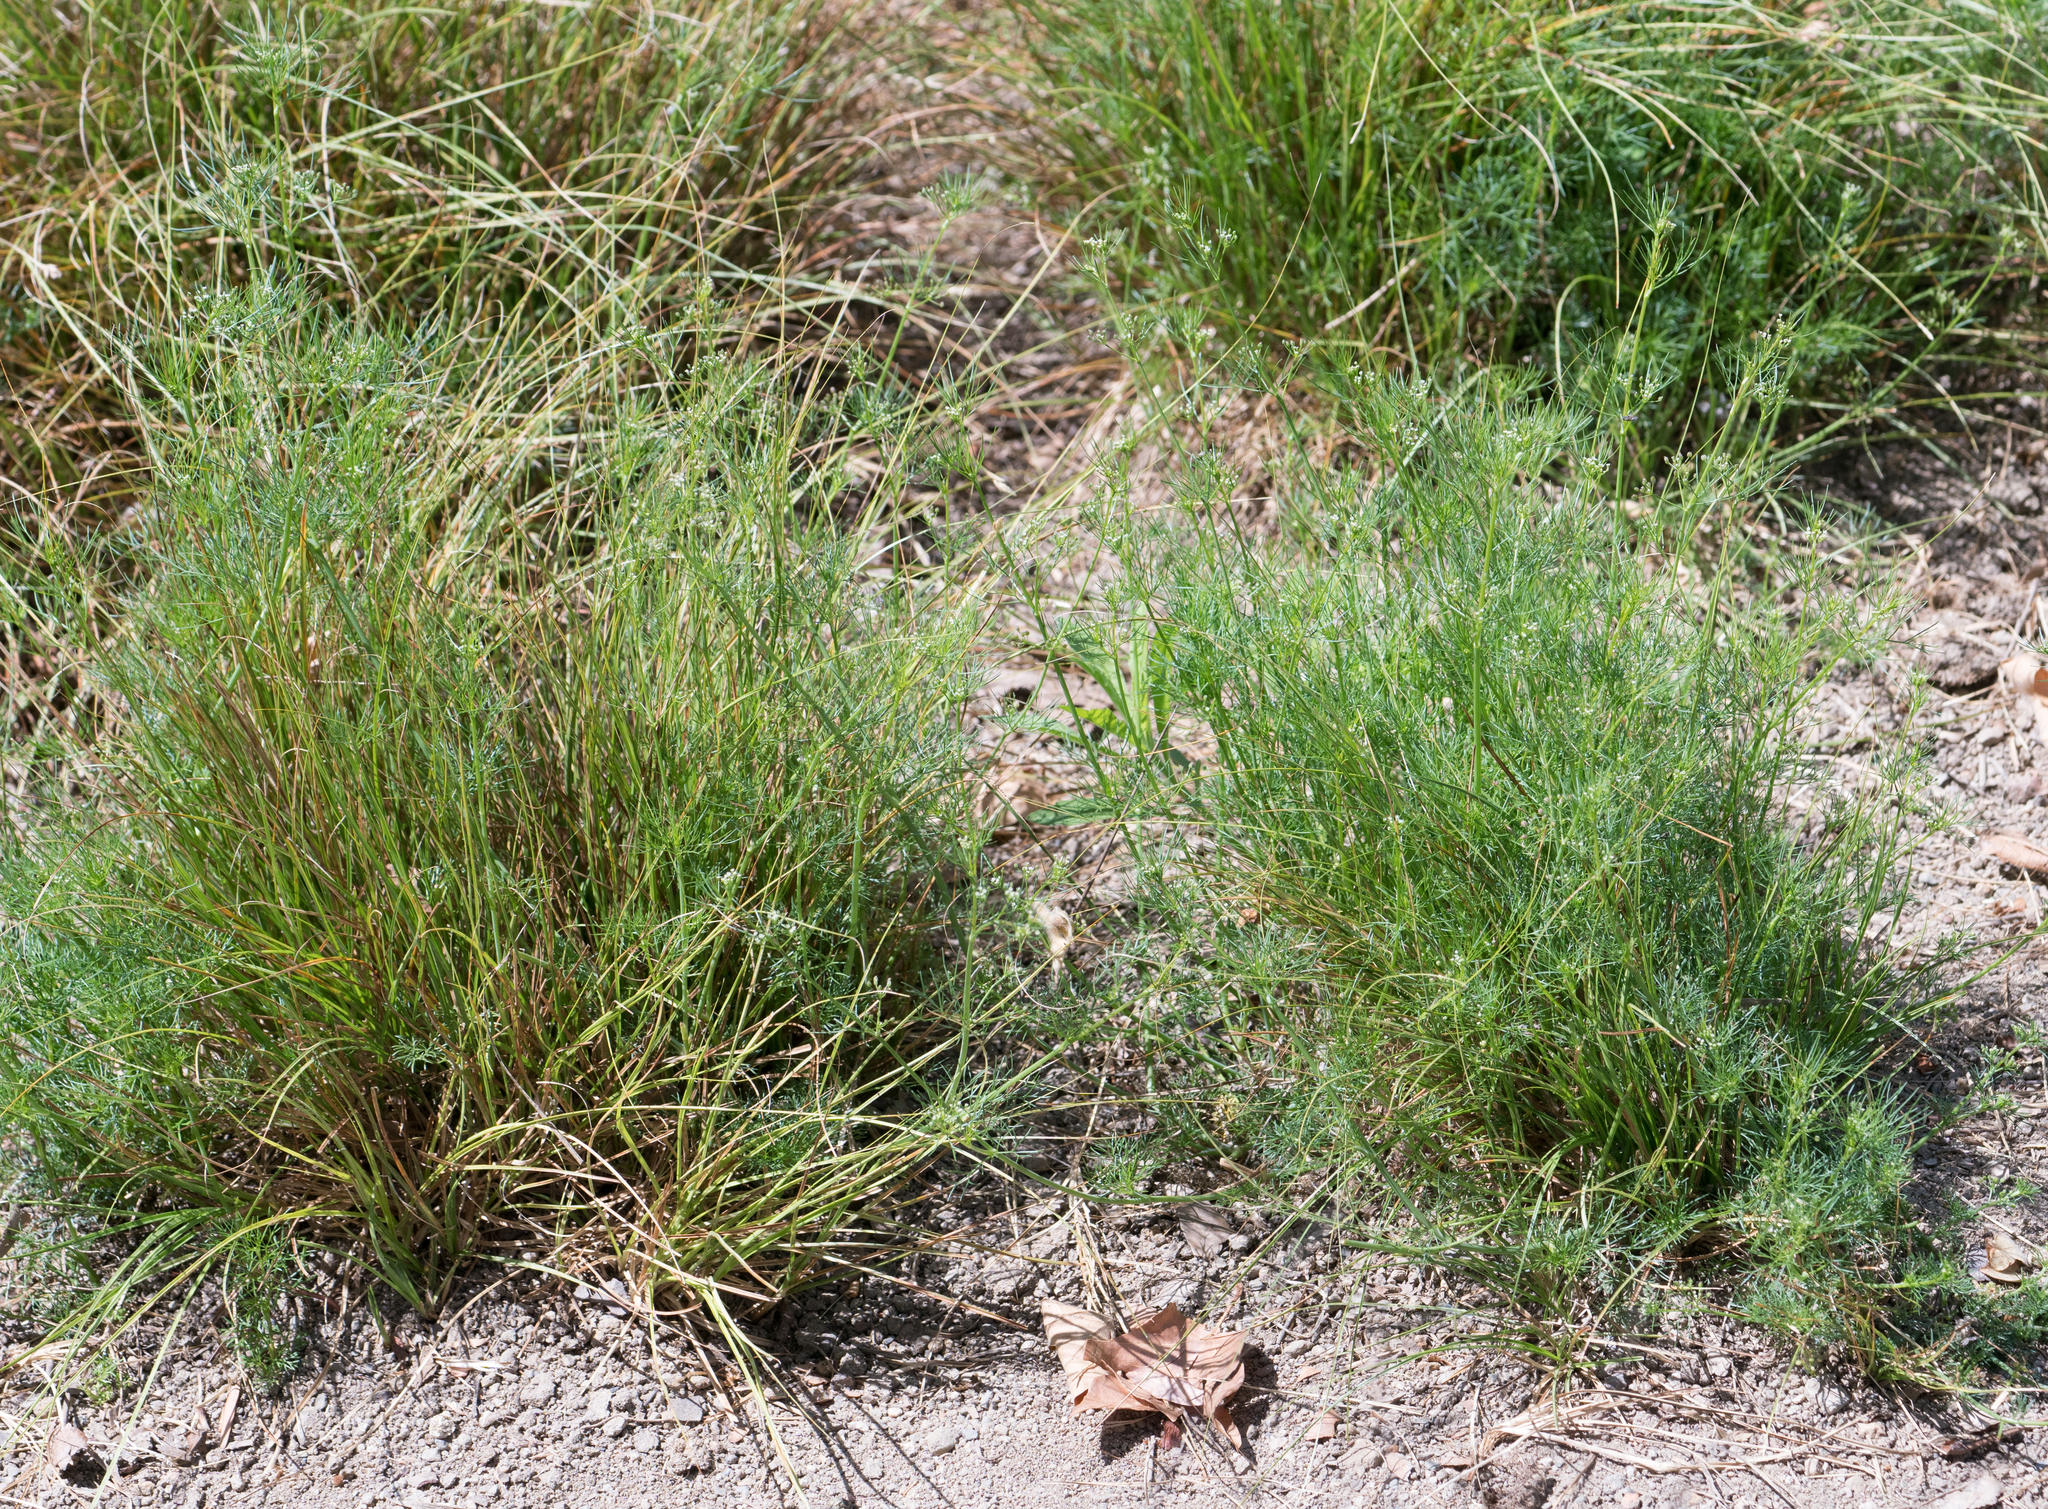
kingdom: Plantae
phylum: Tracheophyta
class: Magnoliopsida
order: Apiales
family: Apiaceae
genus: Cyclospermum
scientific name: Cyclospermum leptophyllum
